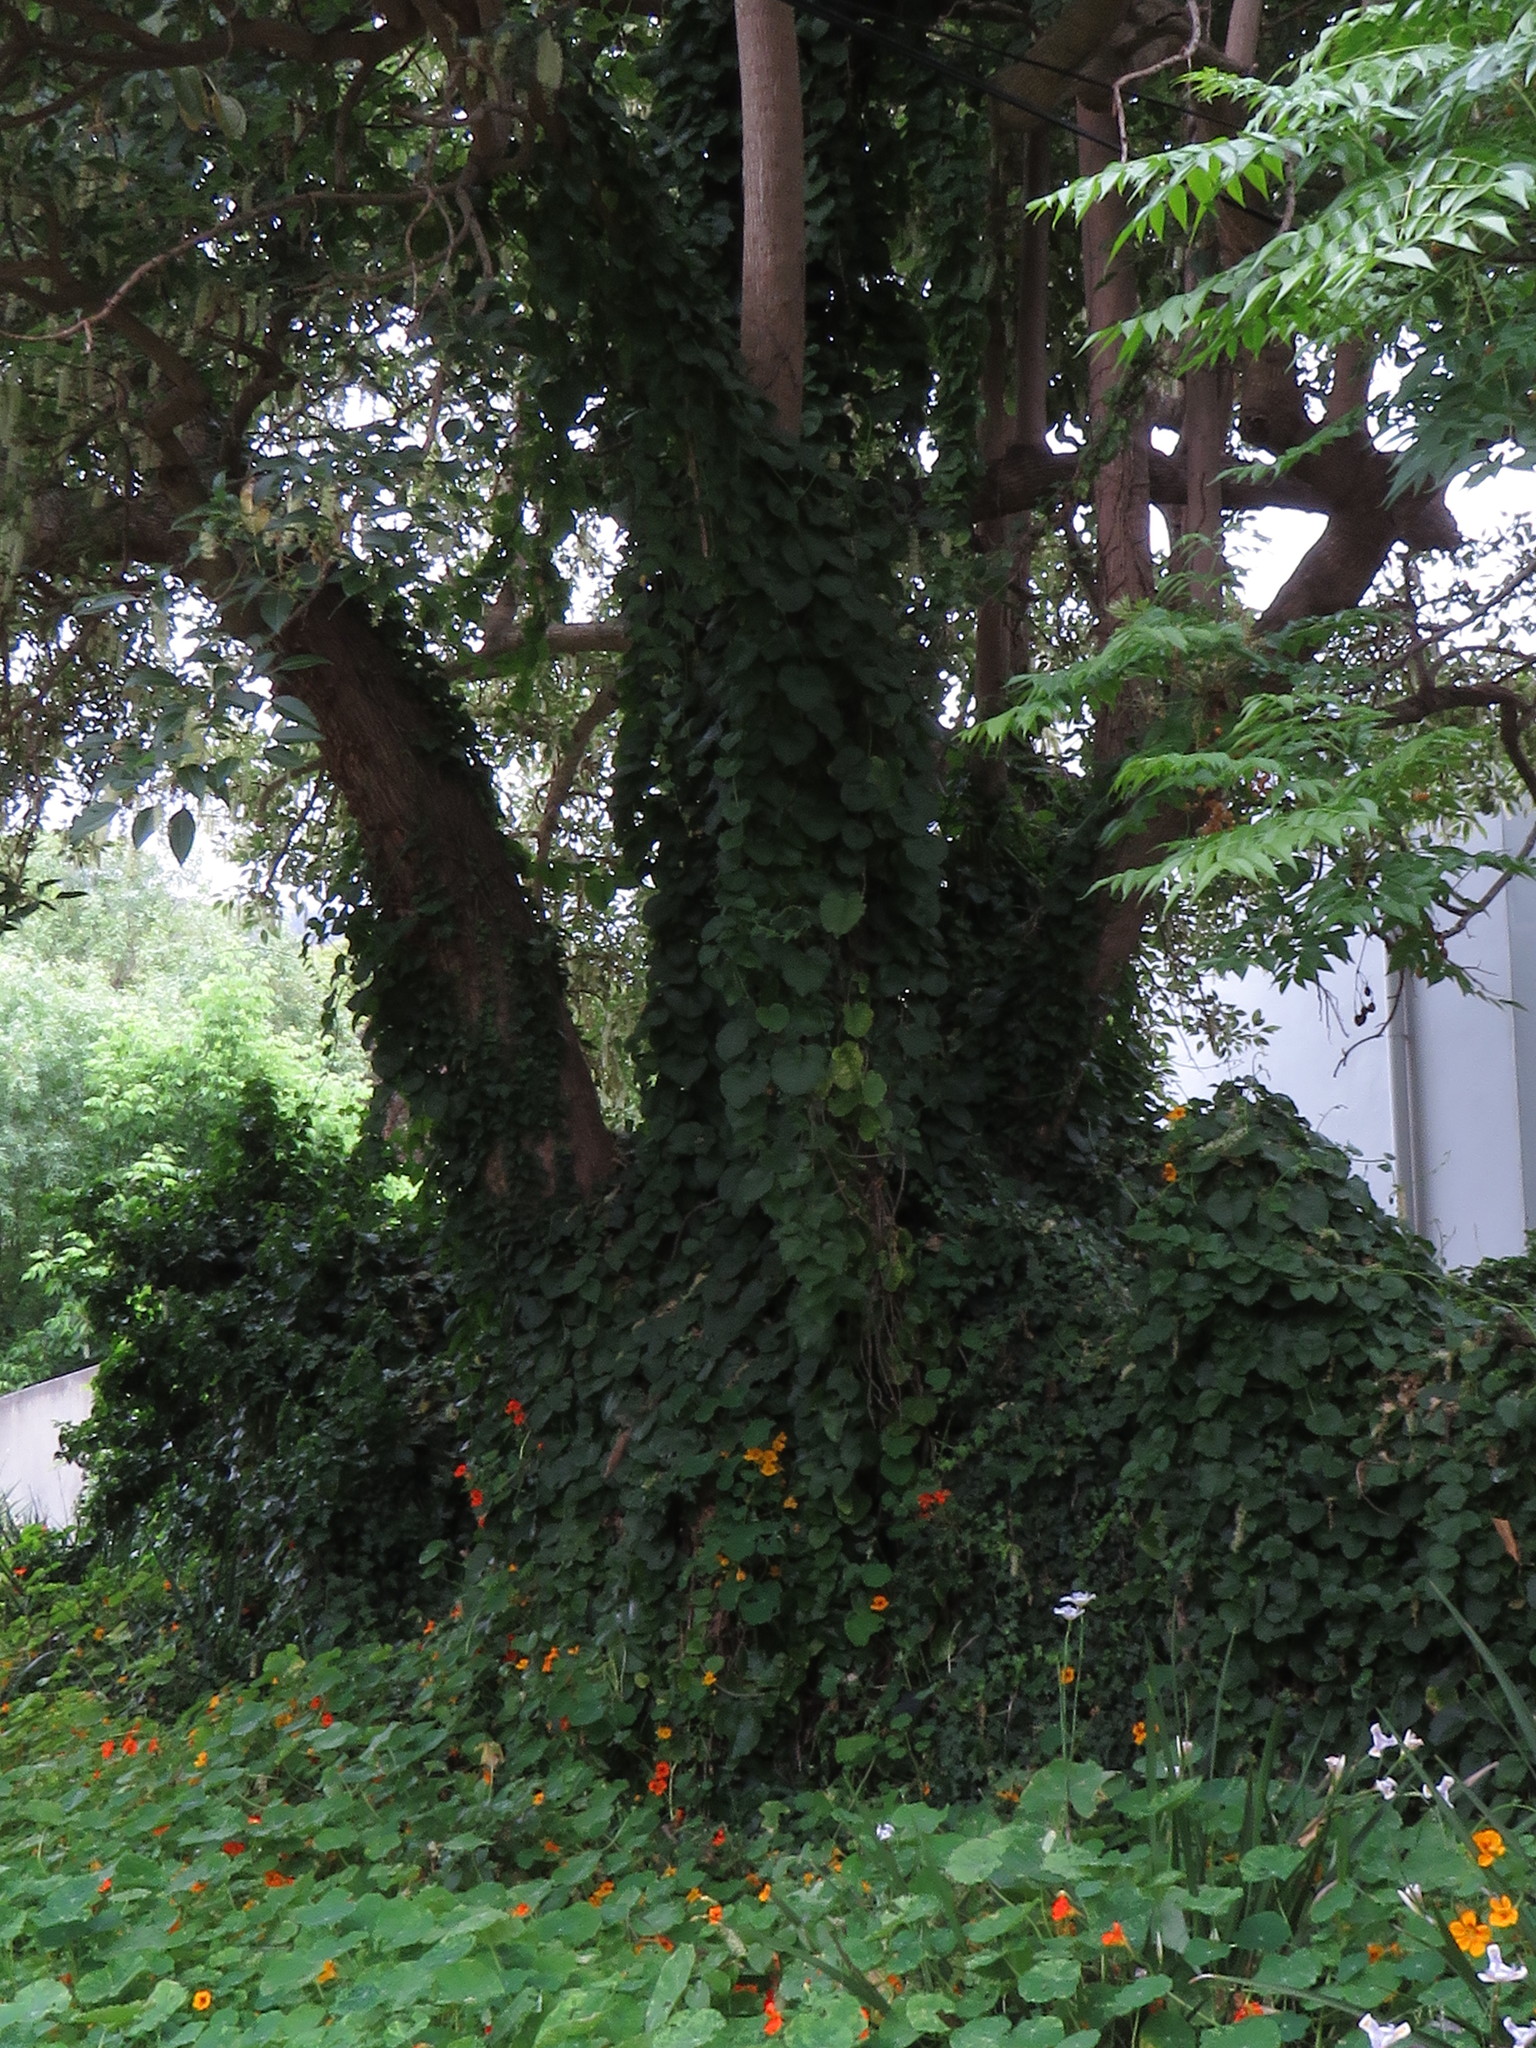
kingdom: Plantae
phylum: Tracheophyta
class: Magnoliopsida
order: Caryophyllales
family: Basellaceae
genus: Anredera
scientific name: Anredera cordifolia
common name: Heartleaf madeiravine
